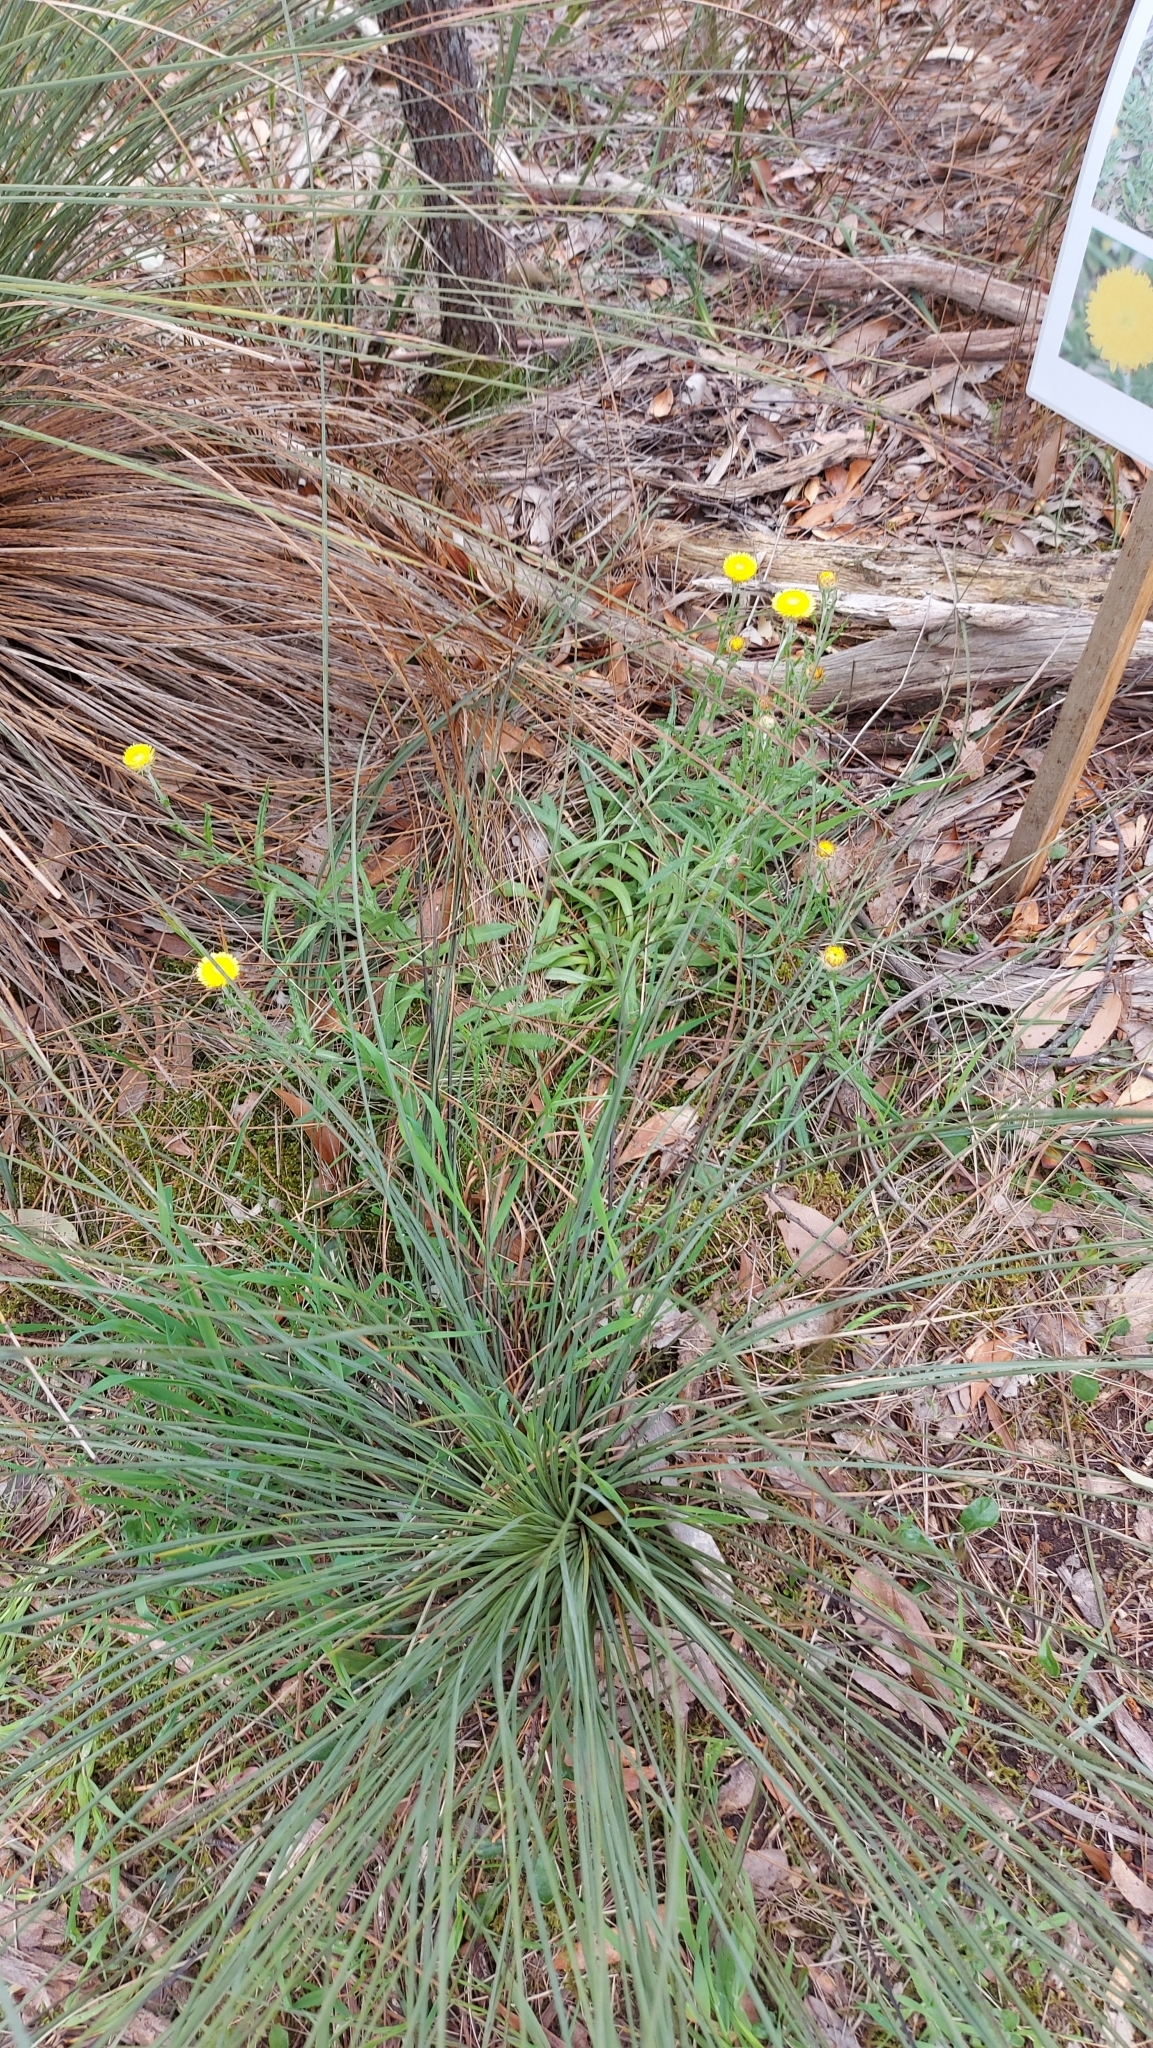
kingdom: Plantae
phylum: Tracheophyta
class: Magnoliopsida
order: Asterales
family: Asteraceae
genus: Coronidium
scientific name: Coronidium scorpioides
